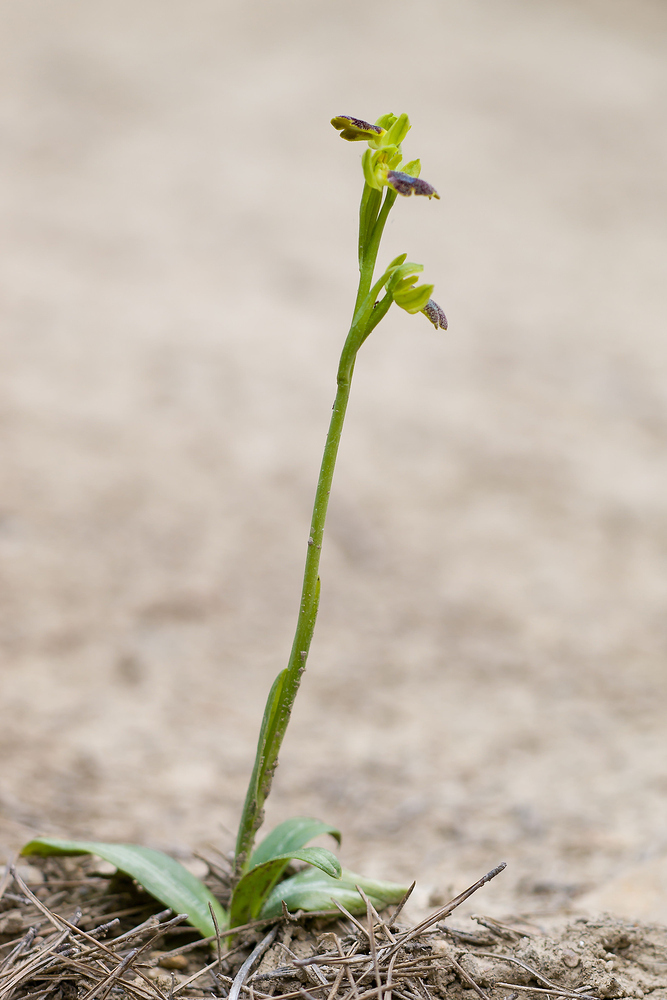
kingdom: Plantae
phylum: Tracheophyta
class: Liliopsida
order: Asparagales
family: Orchidaceae
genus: Ophrys
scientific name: Ophrys fusca
